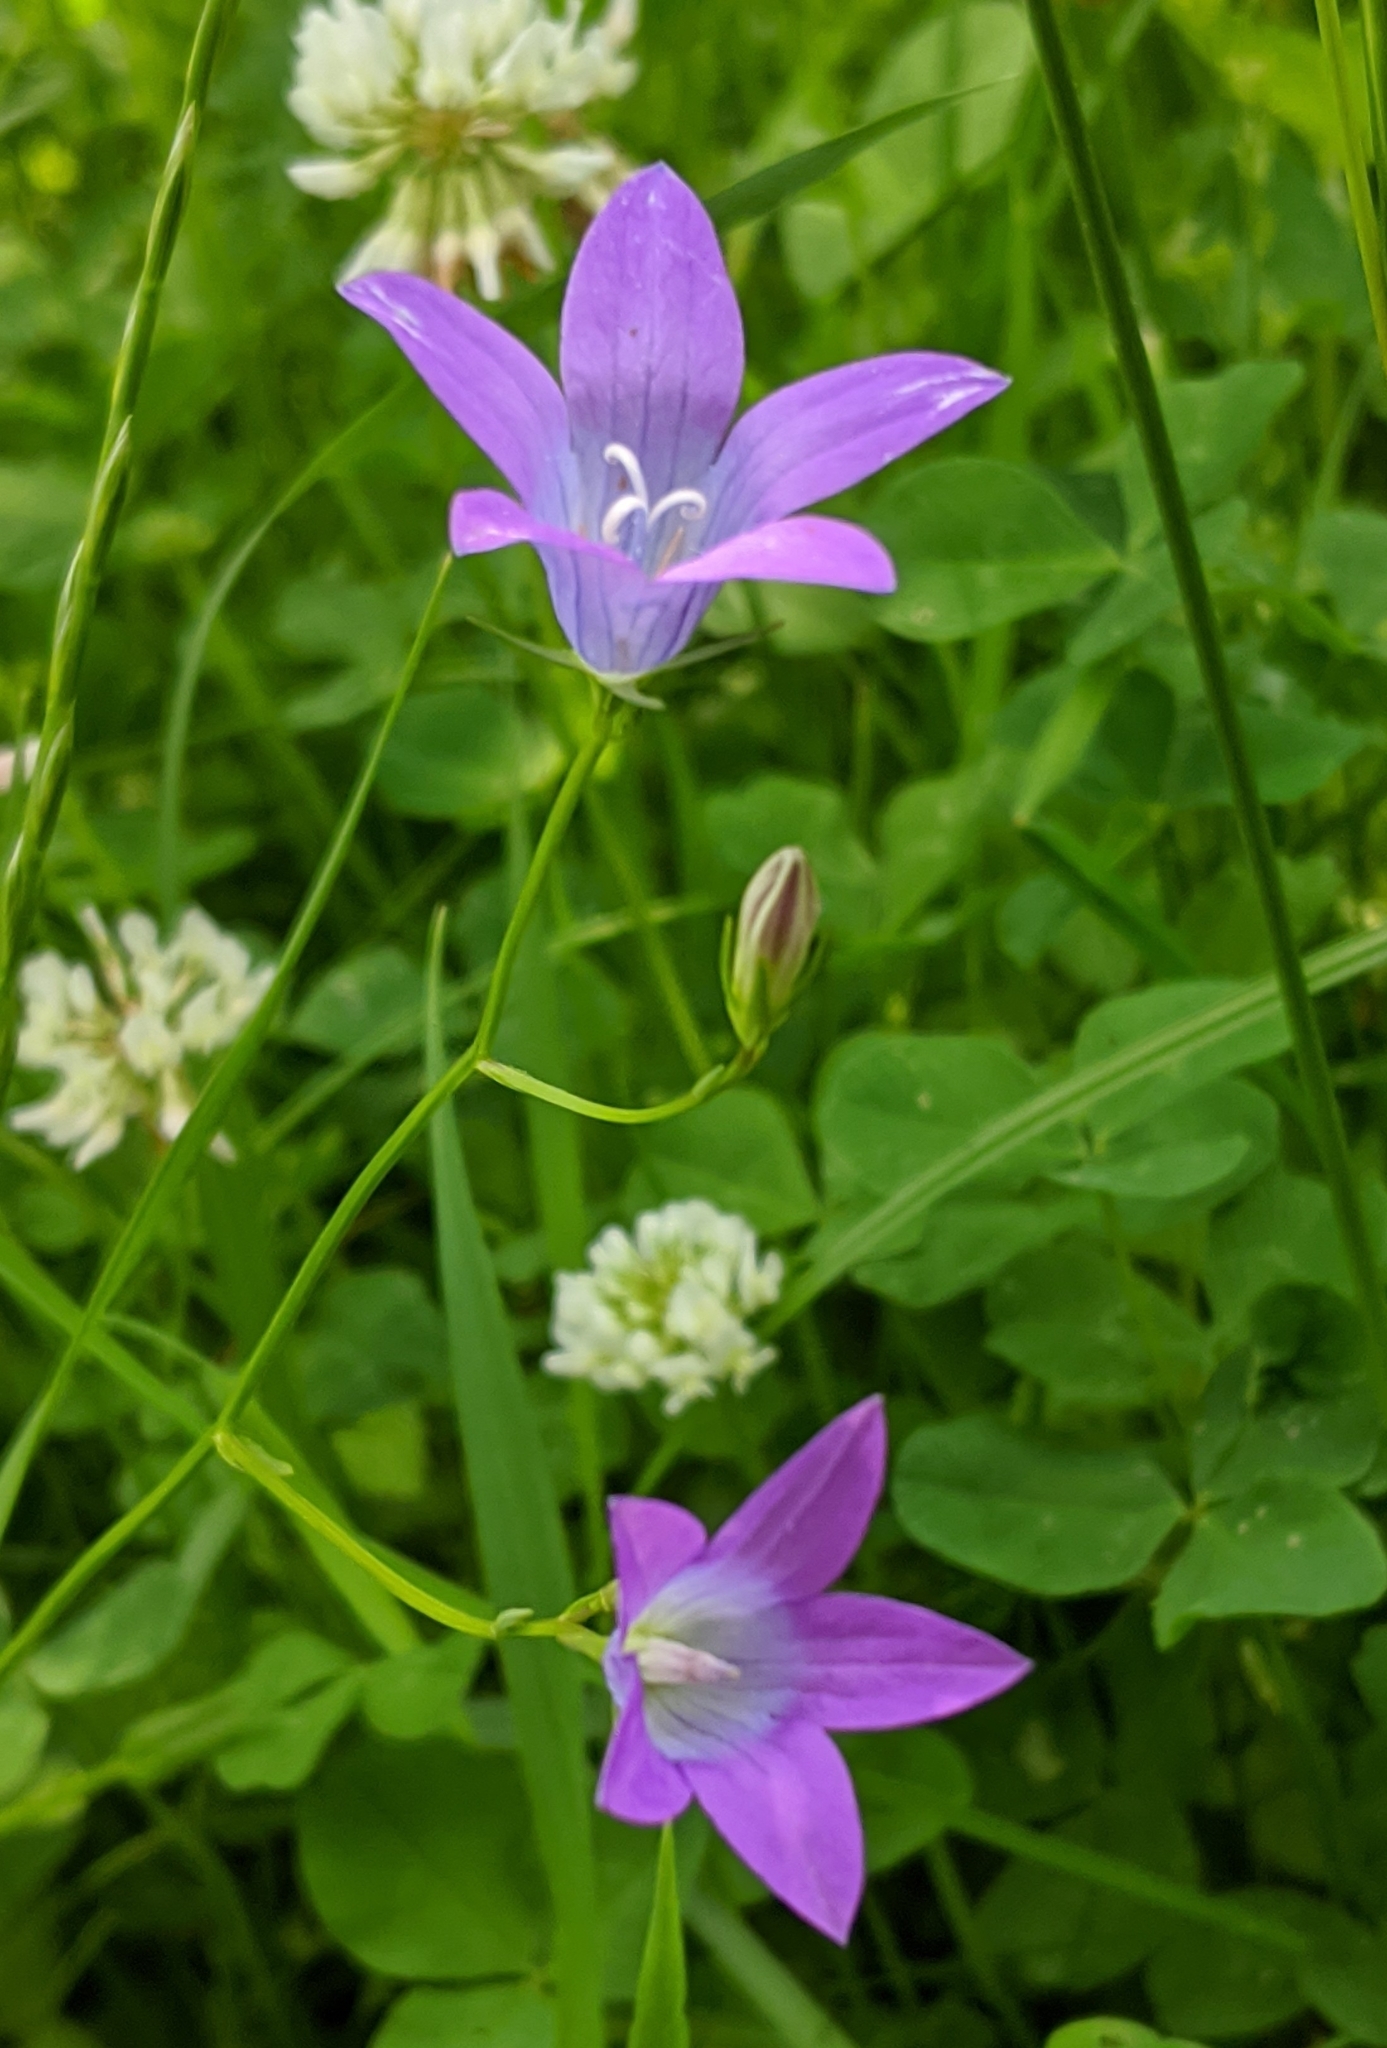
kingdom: Plantae
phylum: Tracheophyta
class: Magnoliopsida
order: Asterales
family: Campanulaceae
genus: Campanula
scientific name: Campanula patula
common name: Spreading bellflower
